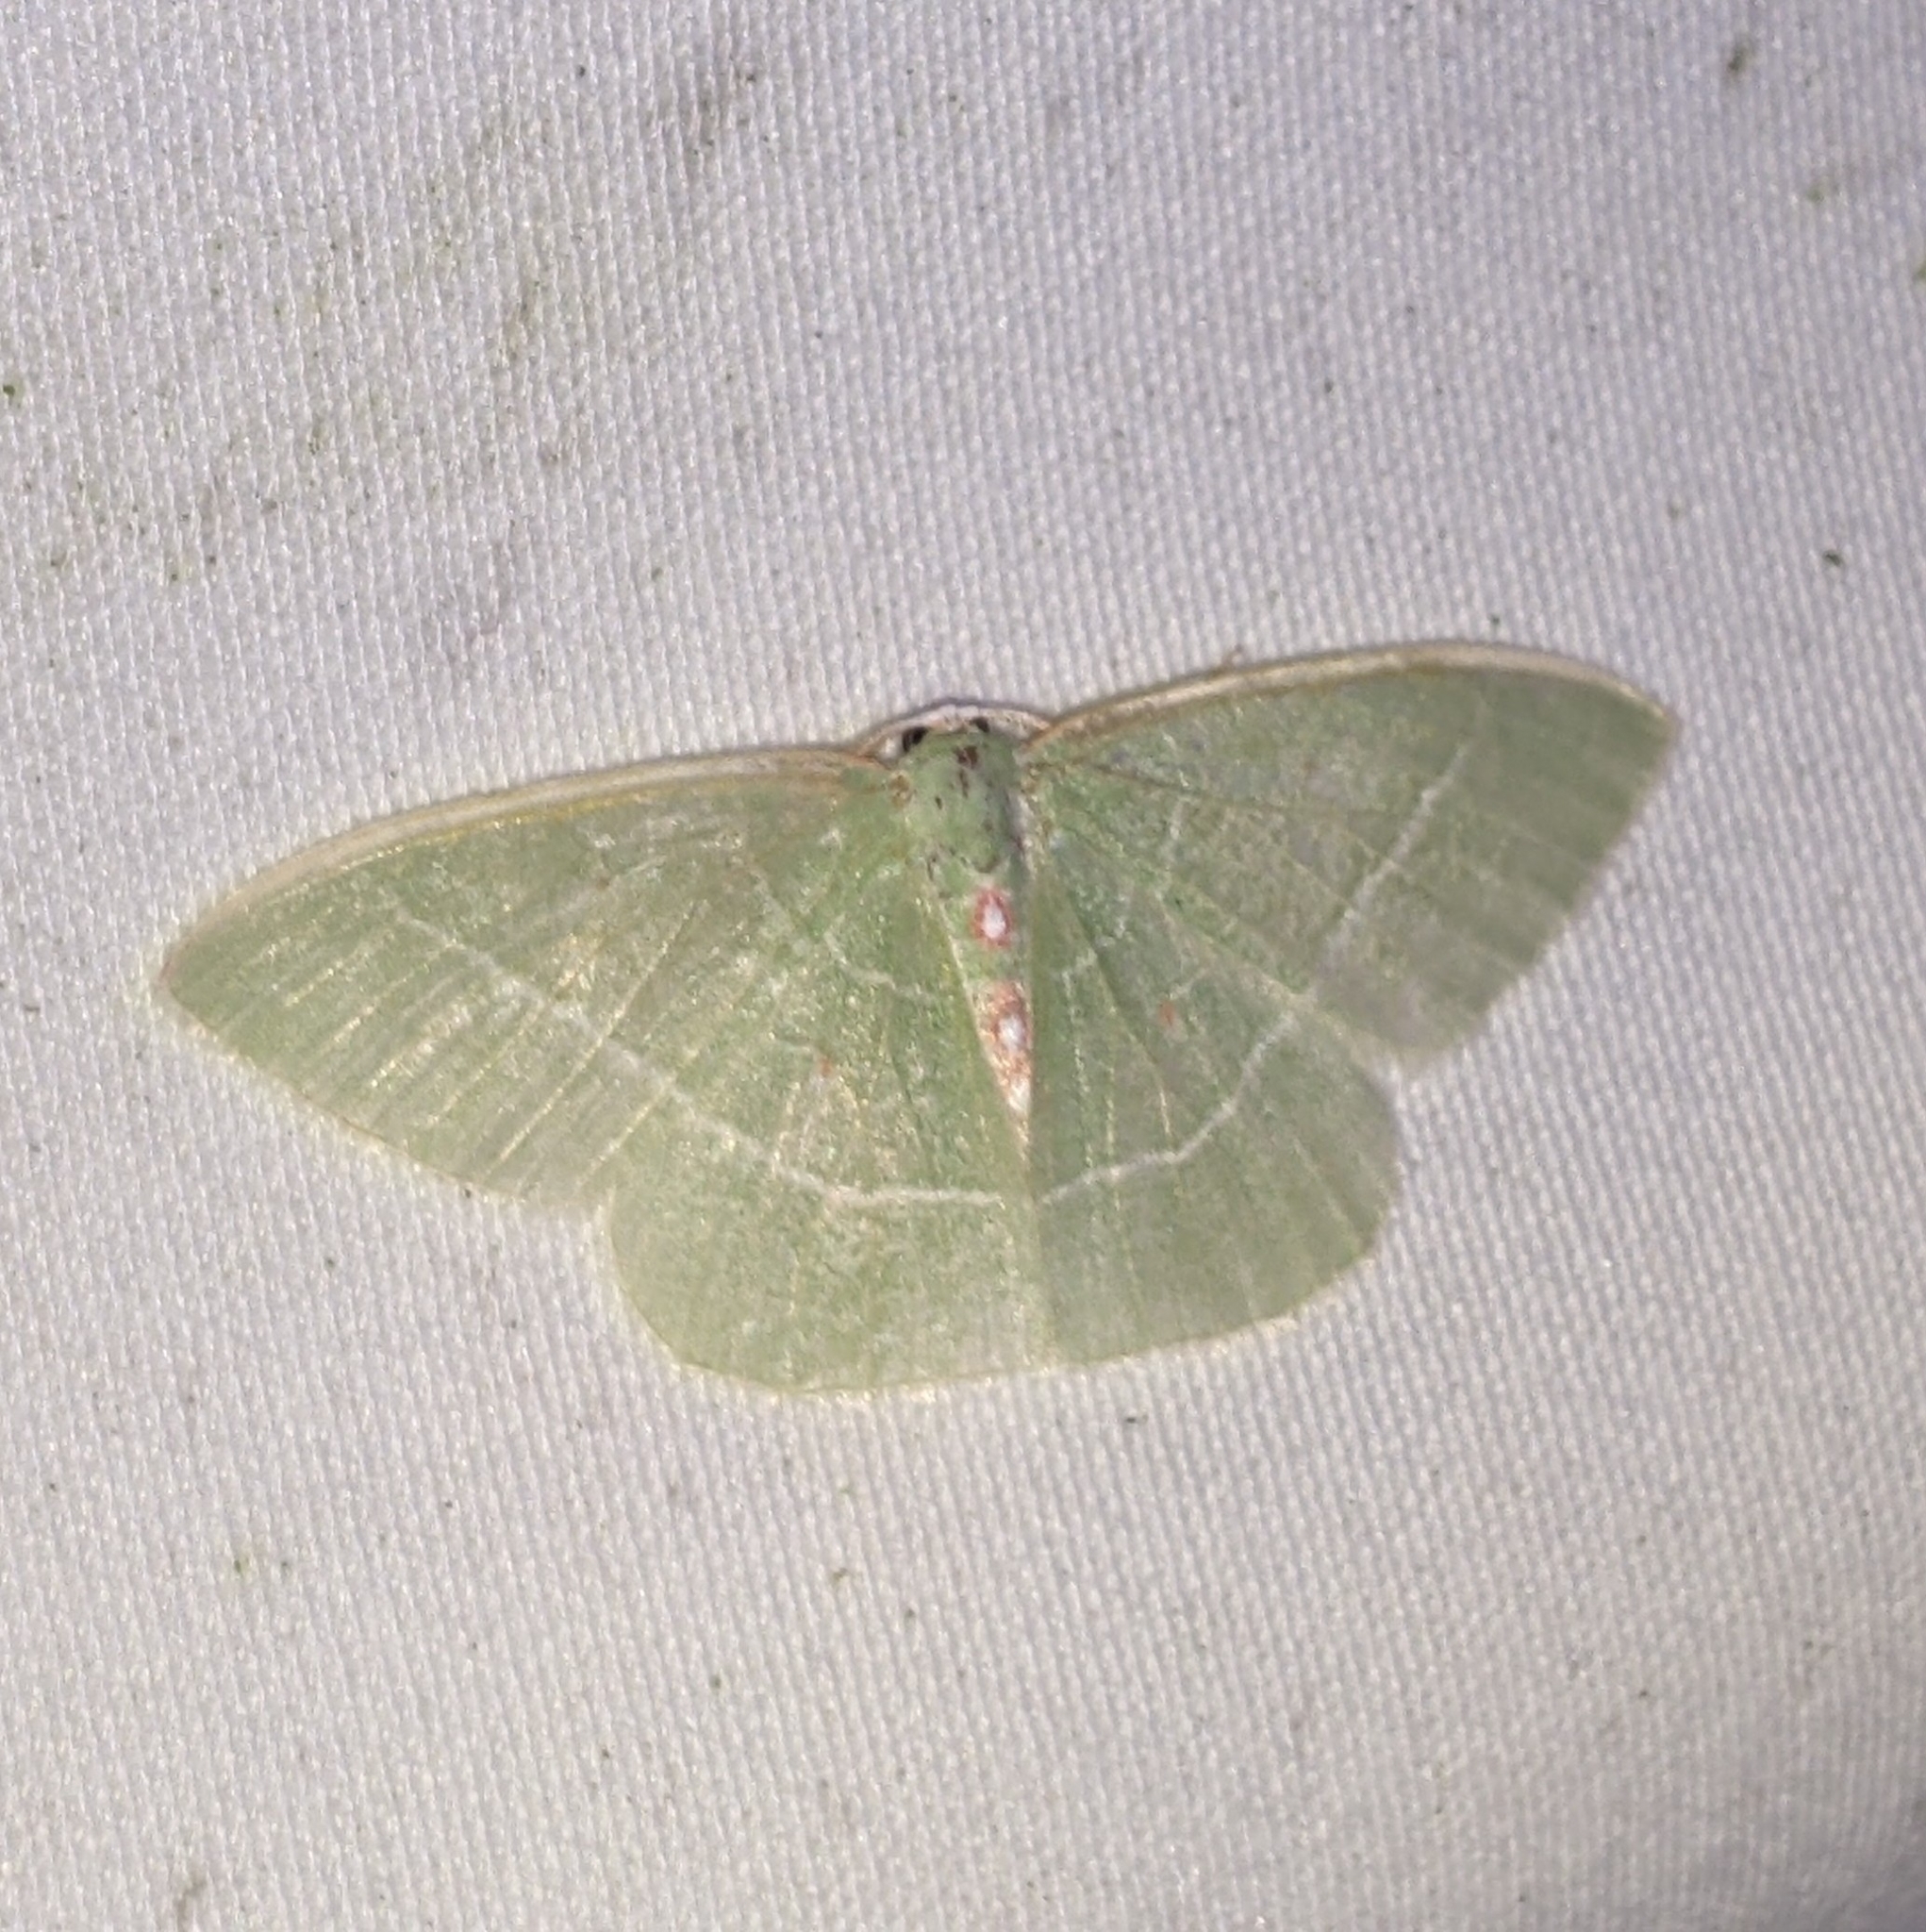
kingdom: Animalia
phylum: Arthropoda
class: Insecta
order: Lepidoptera
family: Geometridae
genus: Nemoria
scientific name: Nemoria darwiniata
